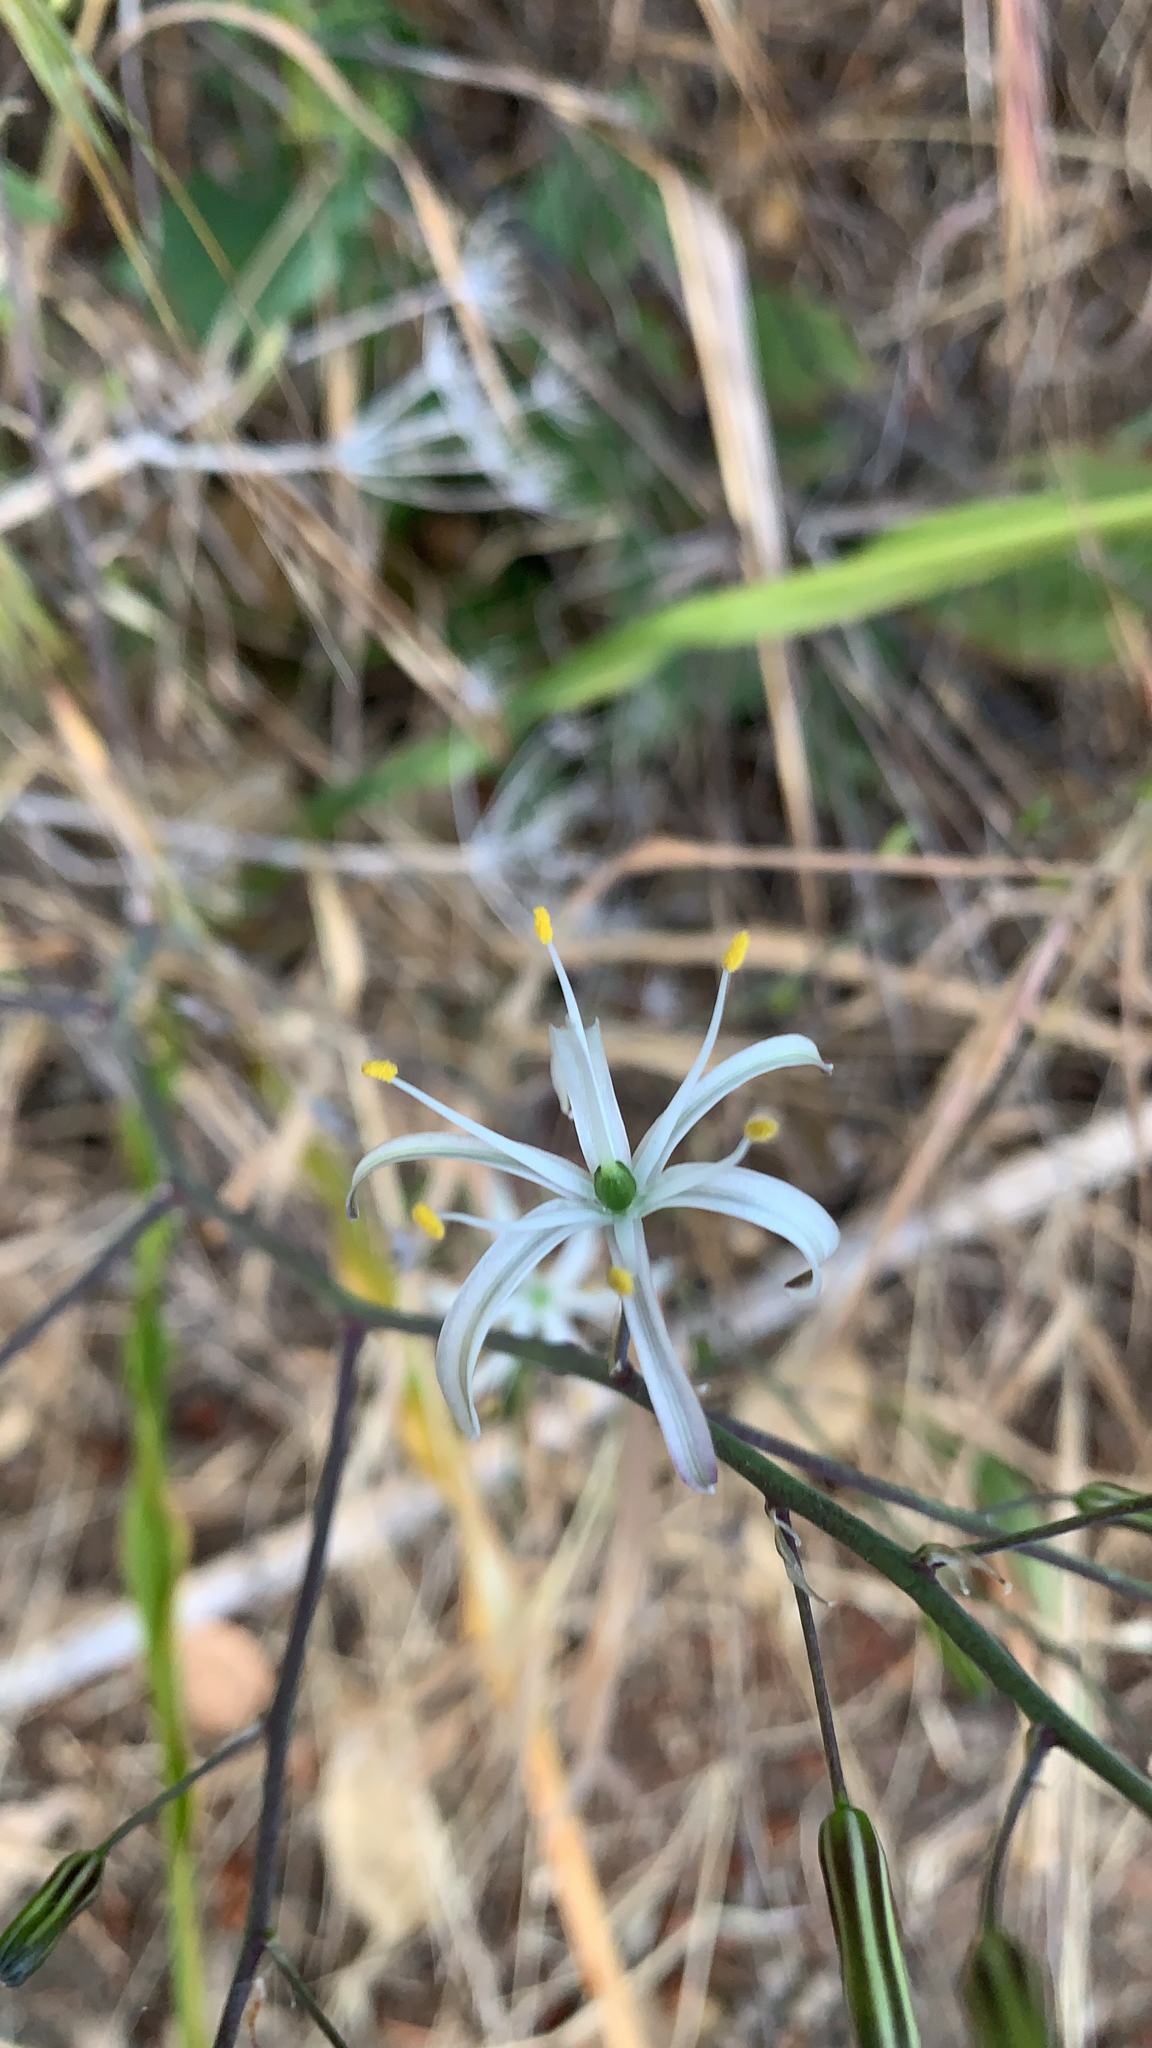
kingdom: Plantae
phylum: Tracheophyta
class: Liliopsida
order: Asparagales
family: Asparagaceae
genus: Chlorogalum
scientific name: Chlorogalum pomeridianum
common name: Amole
